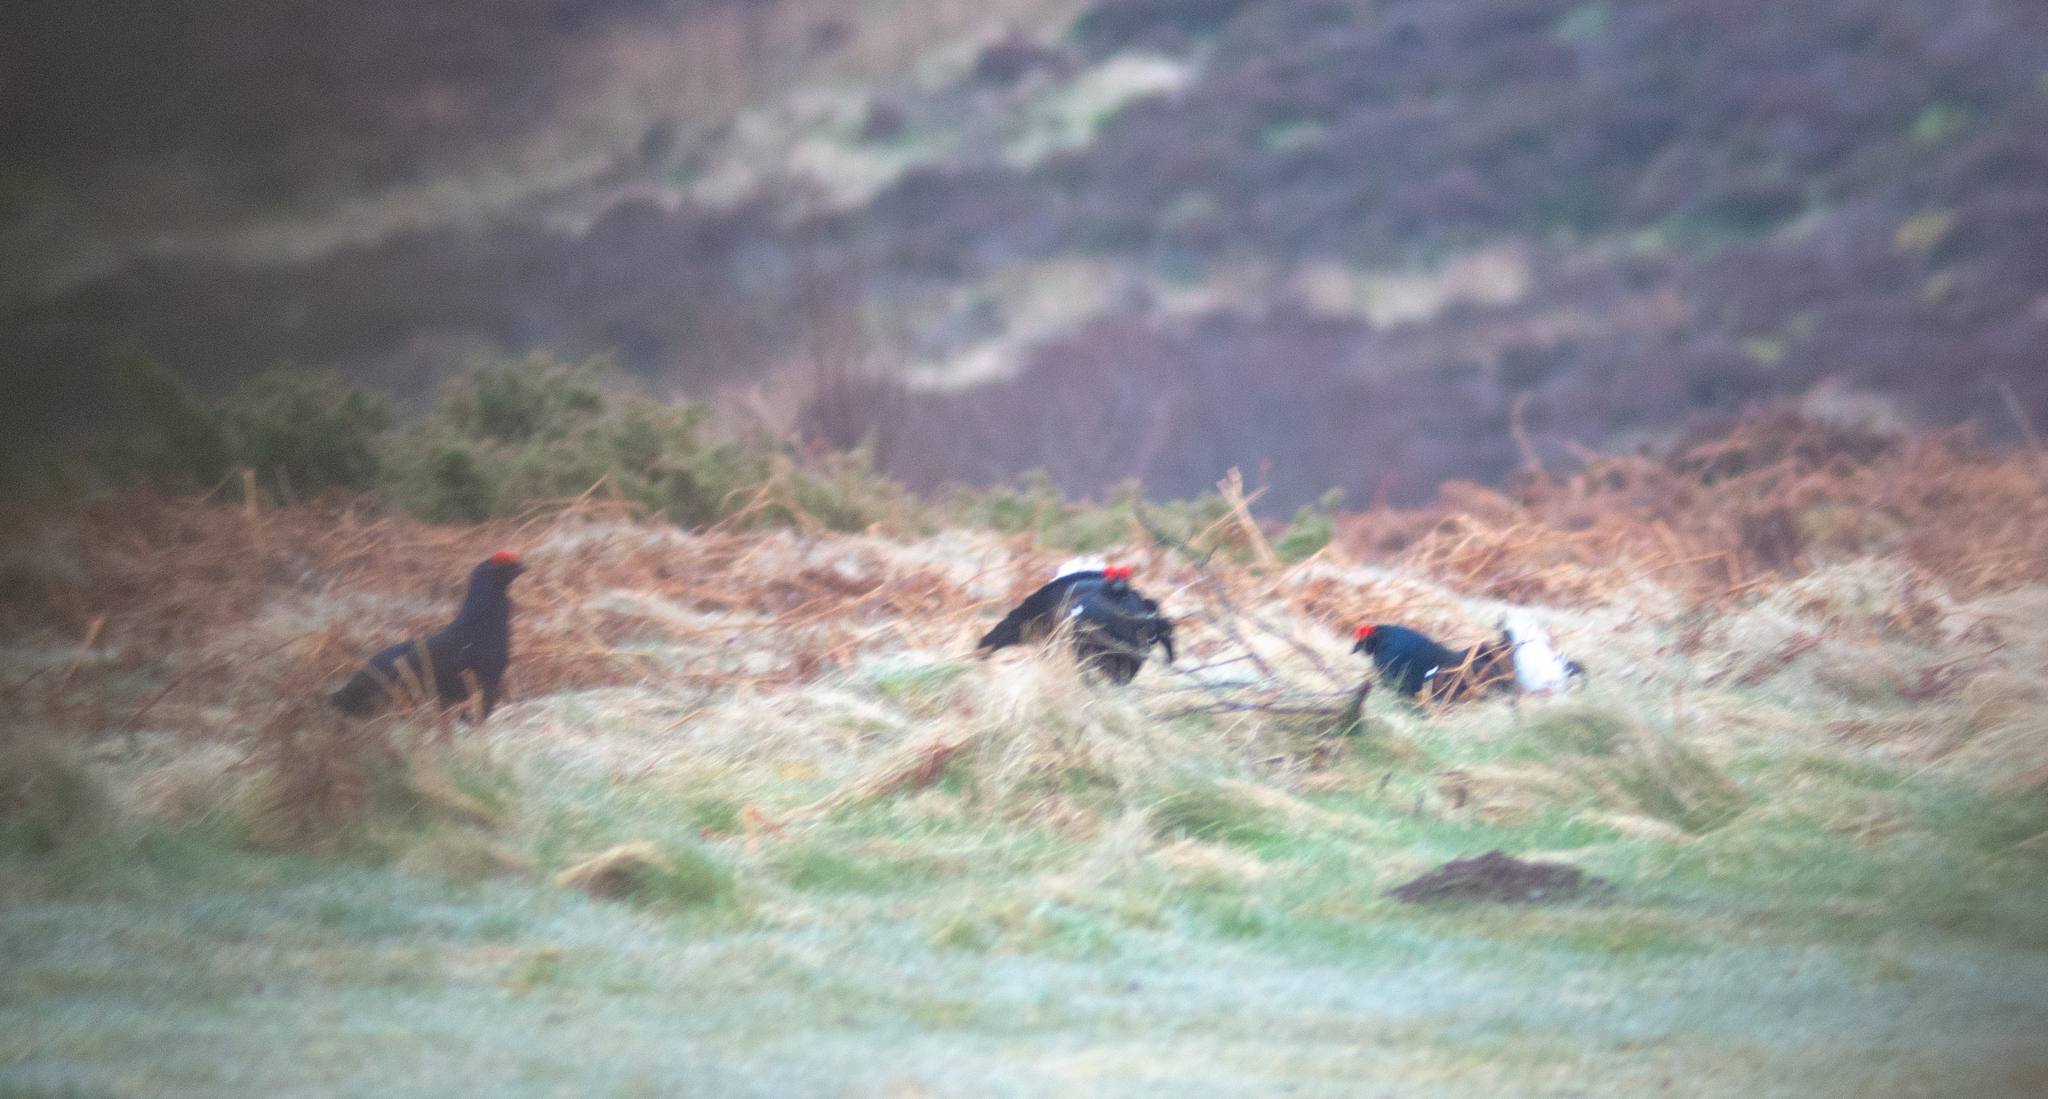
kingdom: Animalia
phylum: Chordata
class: Aves
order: Galliformes
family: Phasianidae
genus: Lyrurus
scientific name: Lyrurus tetrix
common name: Black grouse
